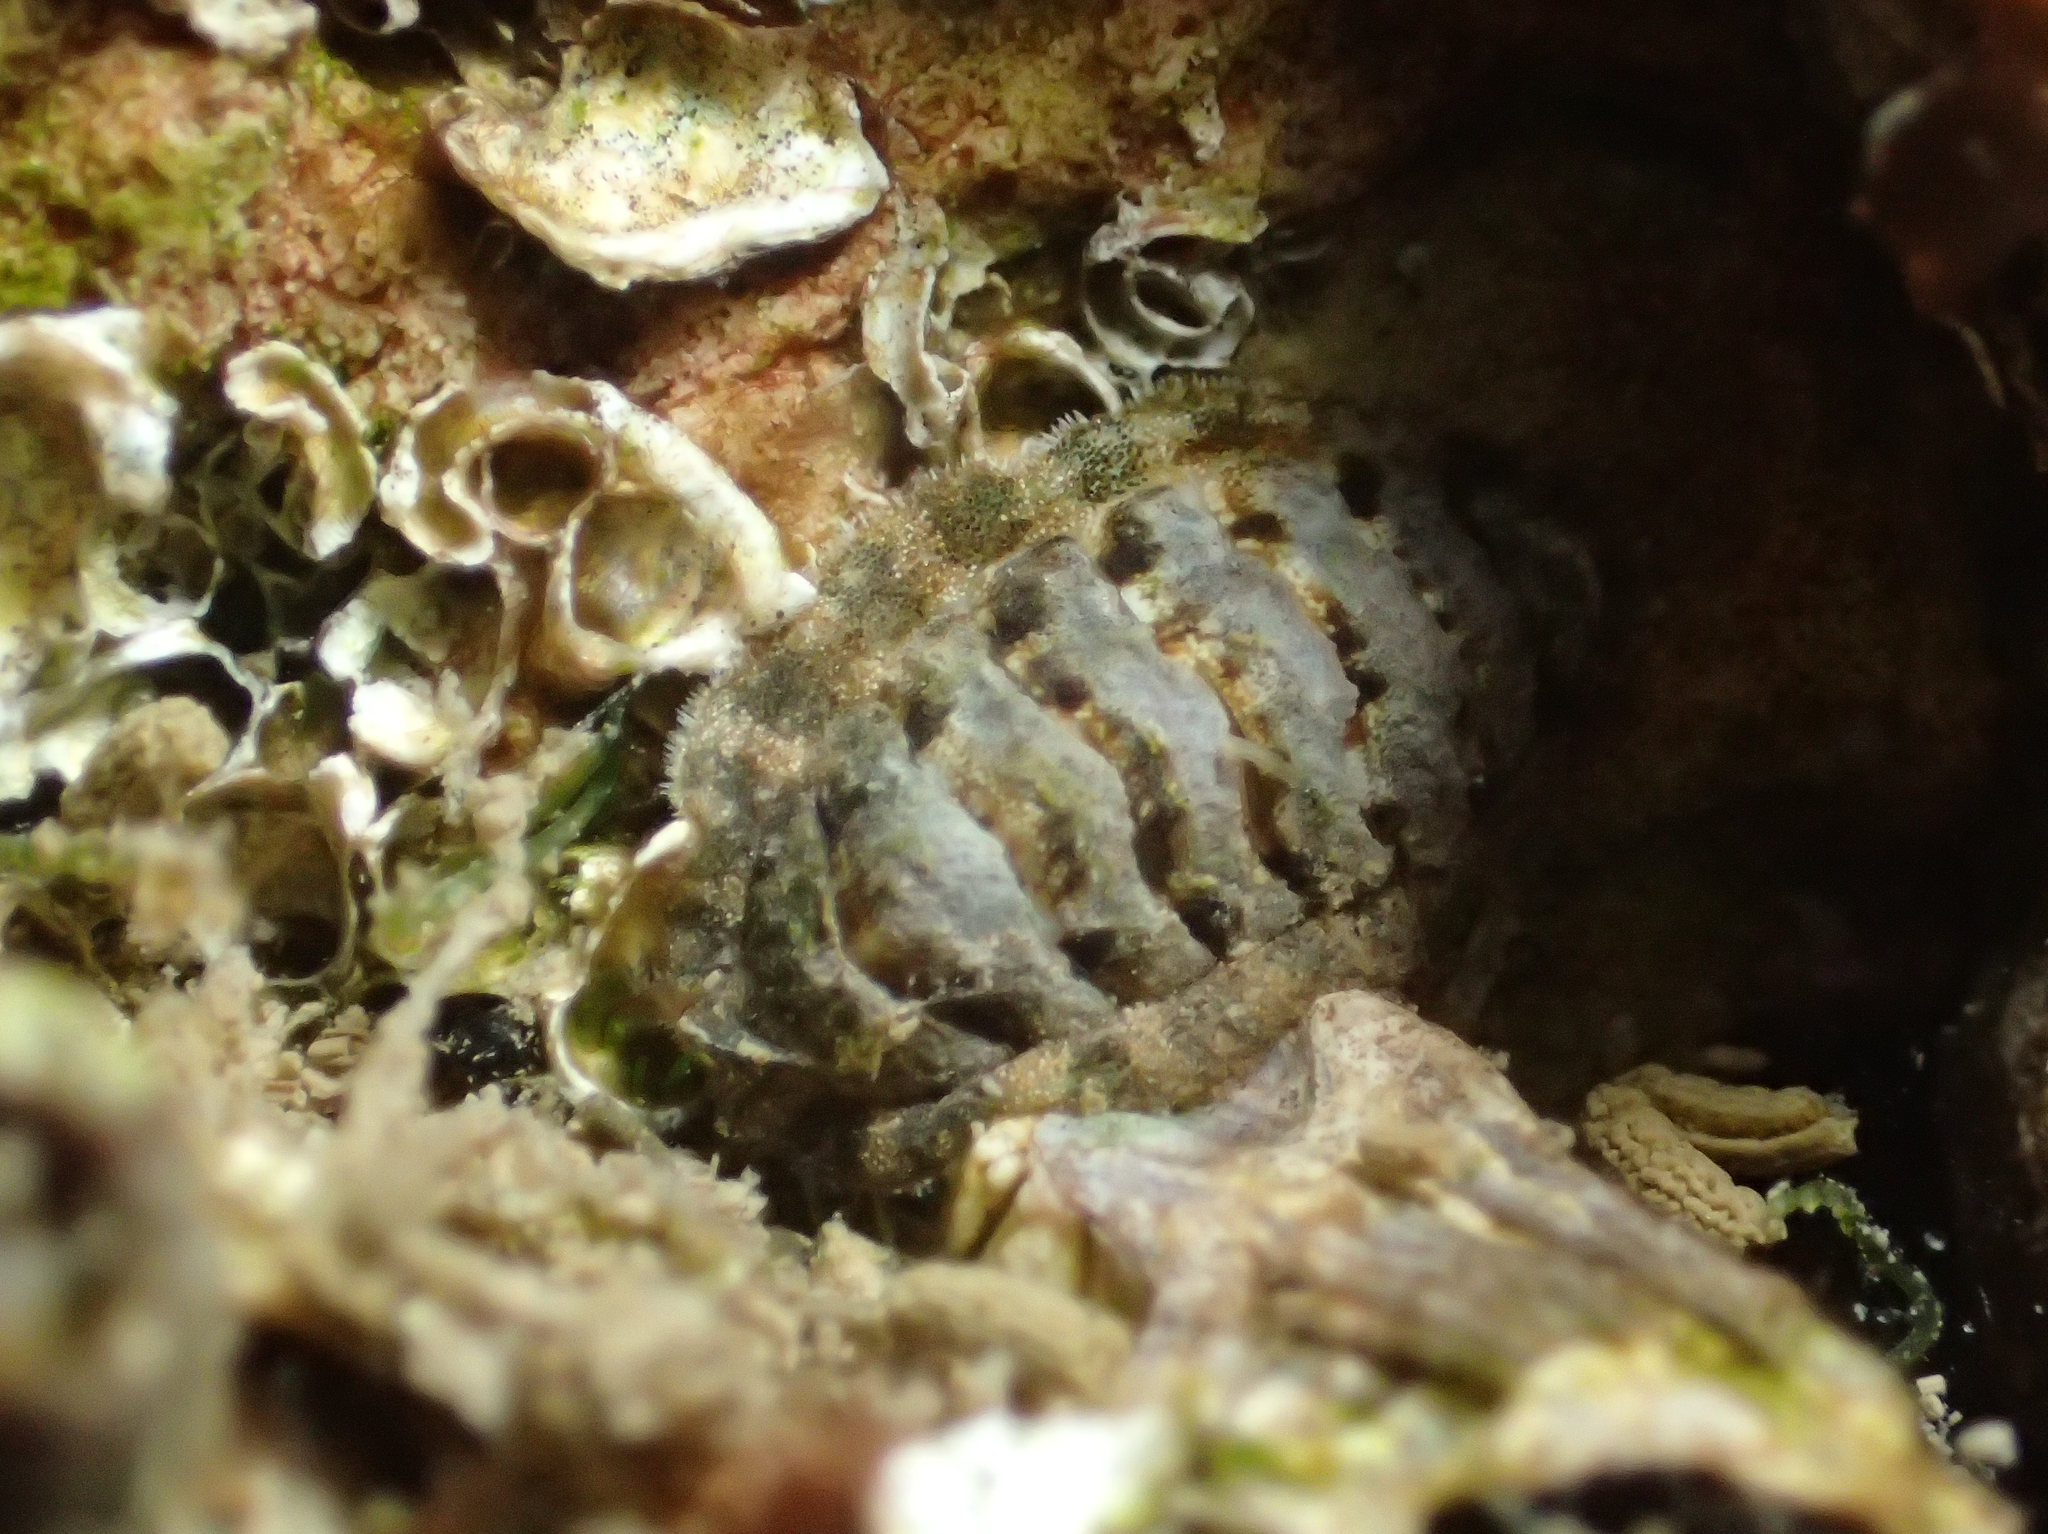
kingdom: Animalia
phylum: Mollusca
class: Polyplacophora
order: Chitonida
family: Tonicellidae
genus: Lepidochitona
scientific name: Lepidochitona caprearum
